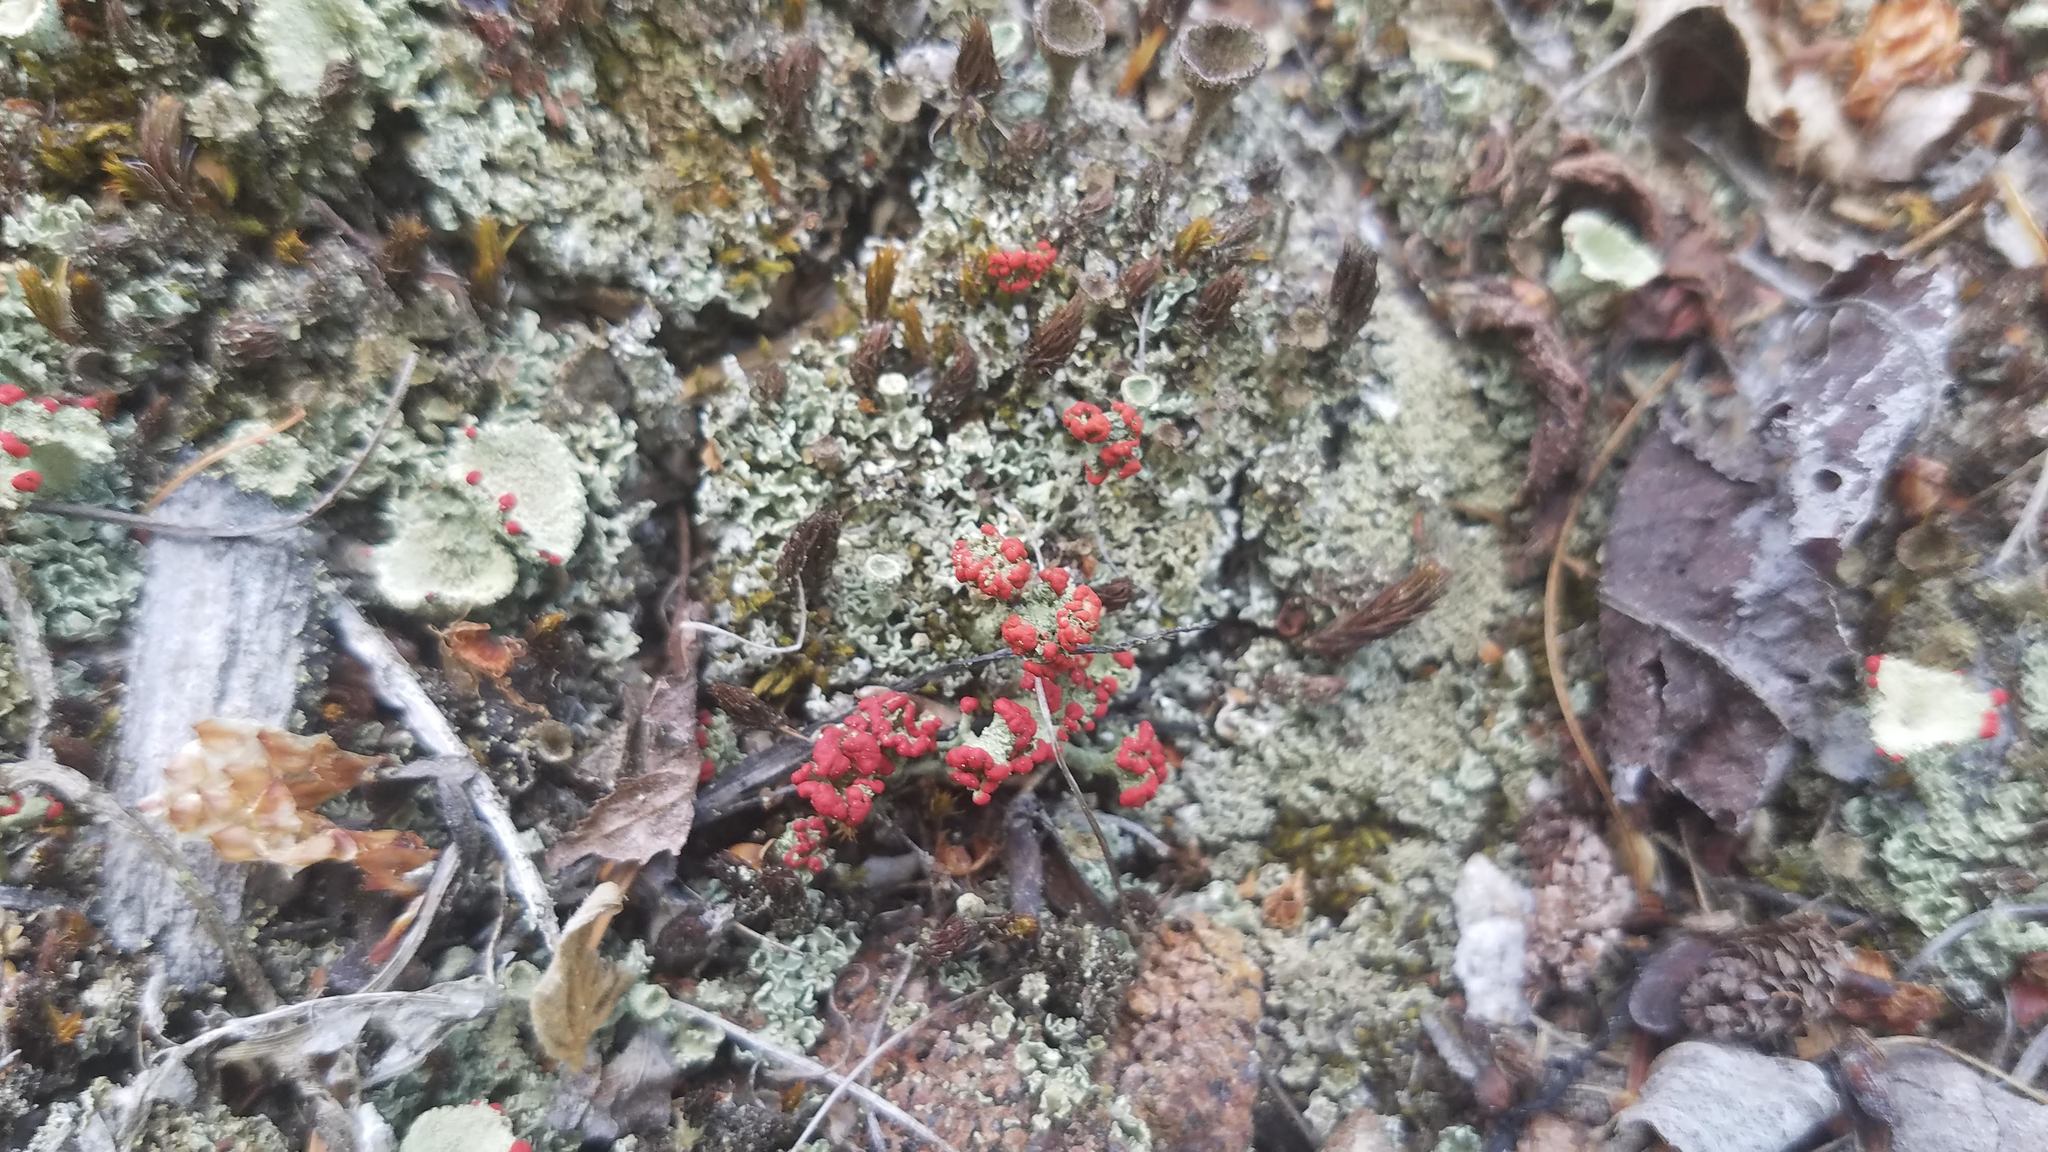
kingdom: Fungi
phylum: Ascomycota
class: Lecanoromycetes
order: Lecanorales
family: Cladoniaceae
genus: Cladonia
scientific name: Cladonia cristatella
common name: British soldier lichen
